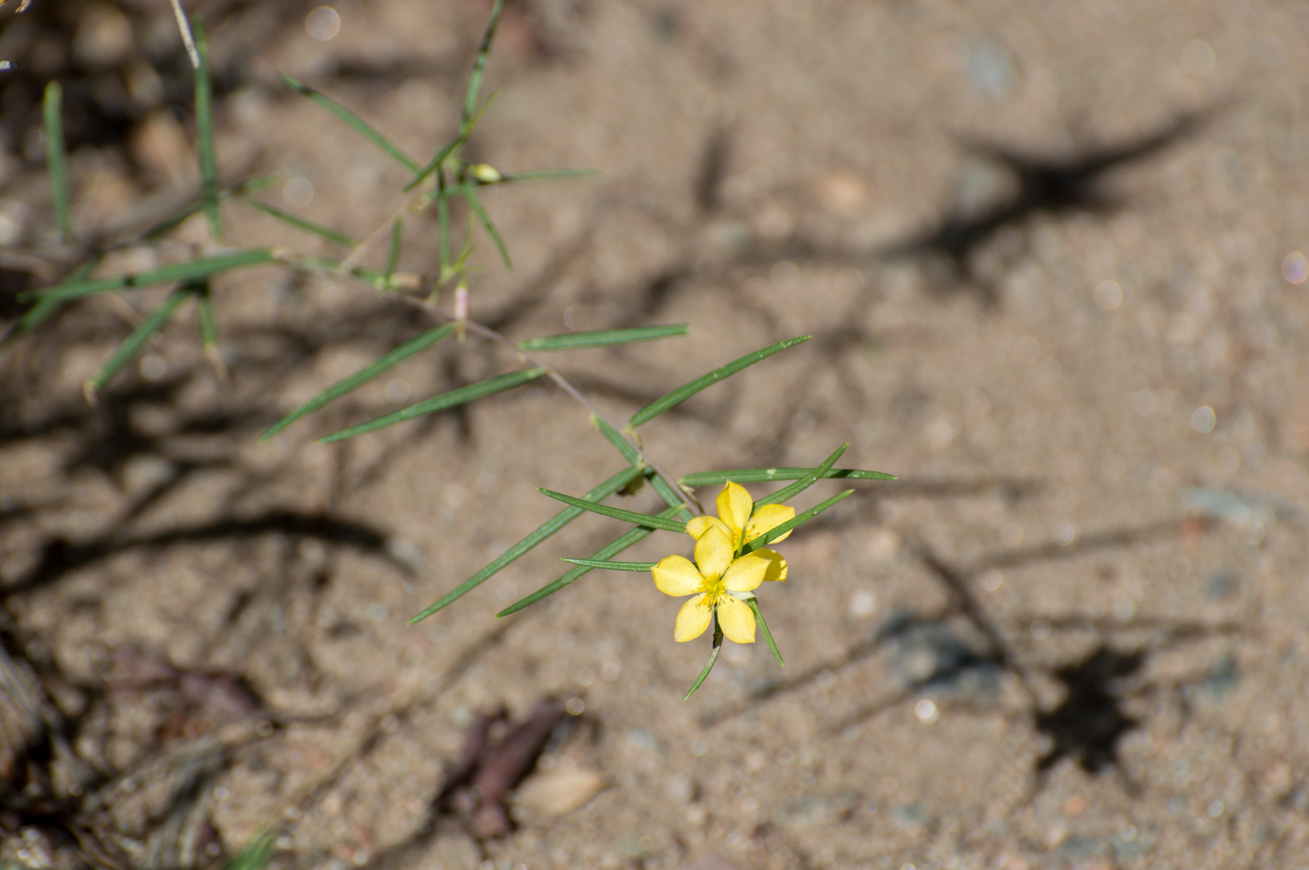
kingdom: Plantae
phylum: Tracheophyta
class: Magnoliopsida
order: Caryophyllales
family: Talinaceae
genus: Talinum
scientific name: Talinum polygaloides
